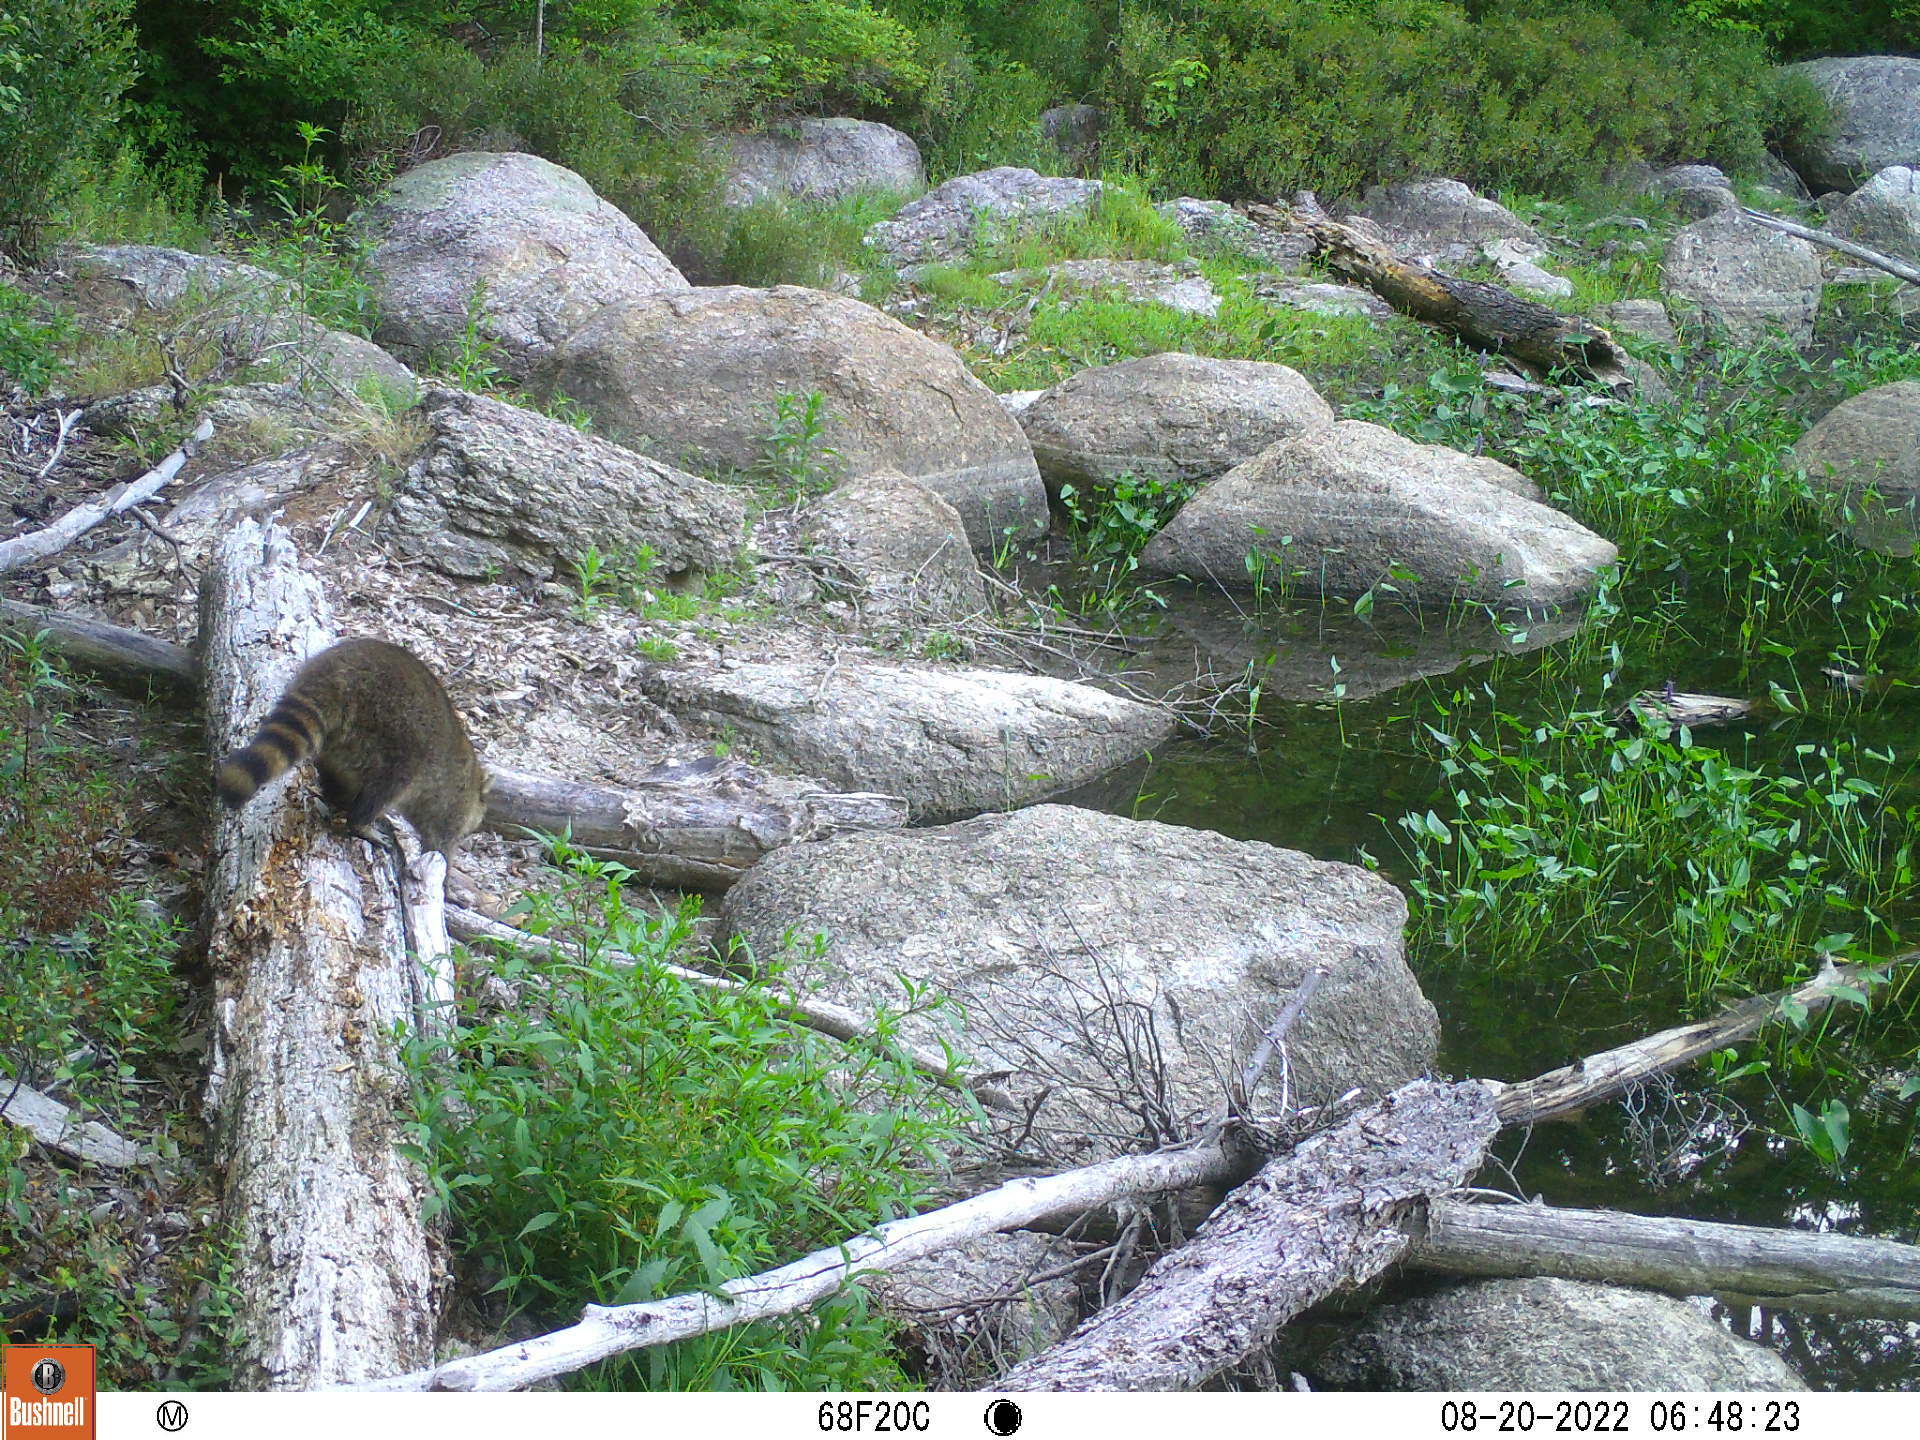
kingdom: Animalia
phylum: Chordata
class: Mammalia
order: Carnivora
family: Procyonidae
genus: Procyon
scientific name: Procyon lotor
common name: Raccoon
